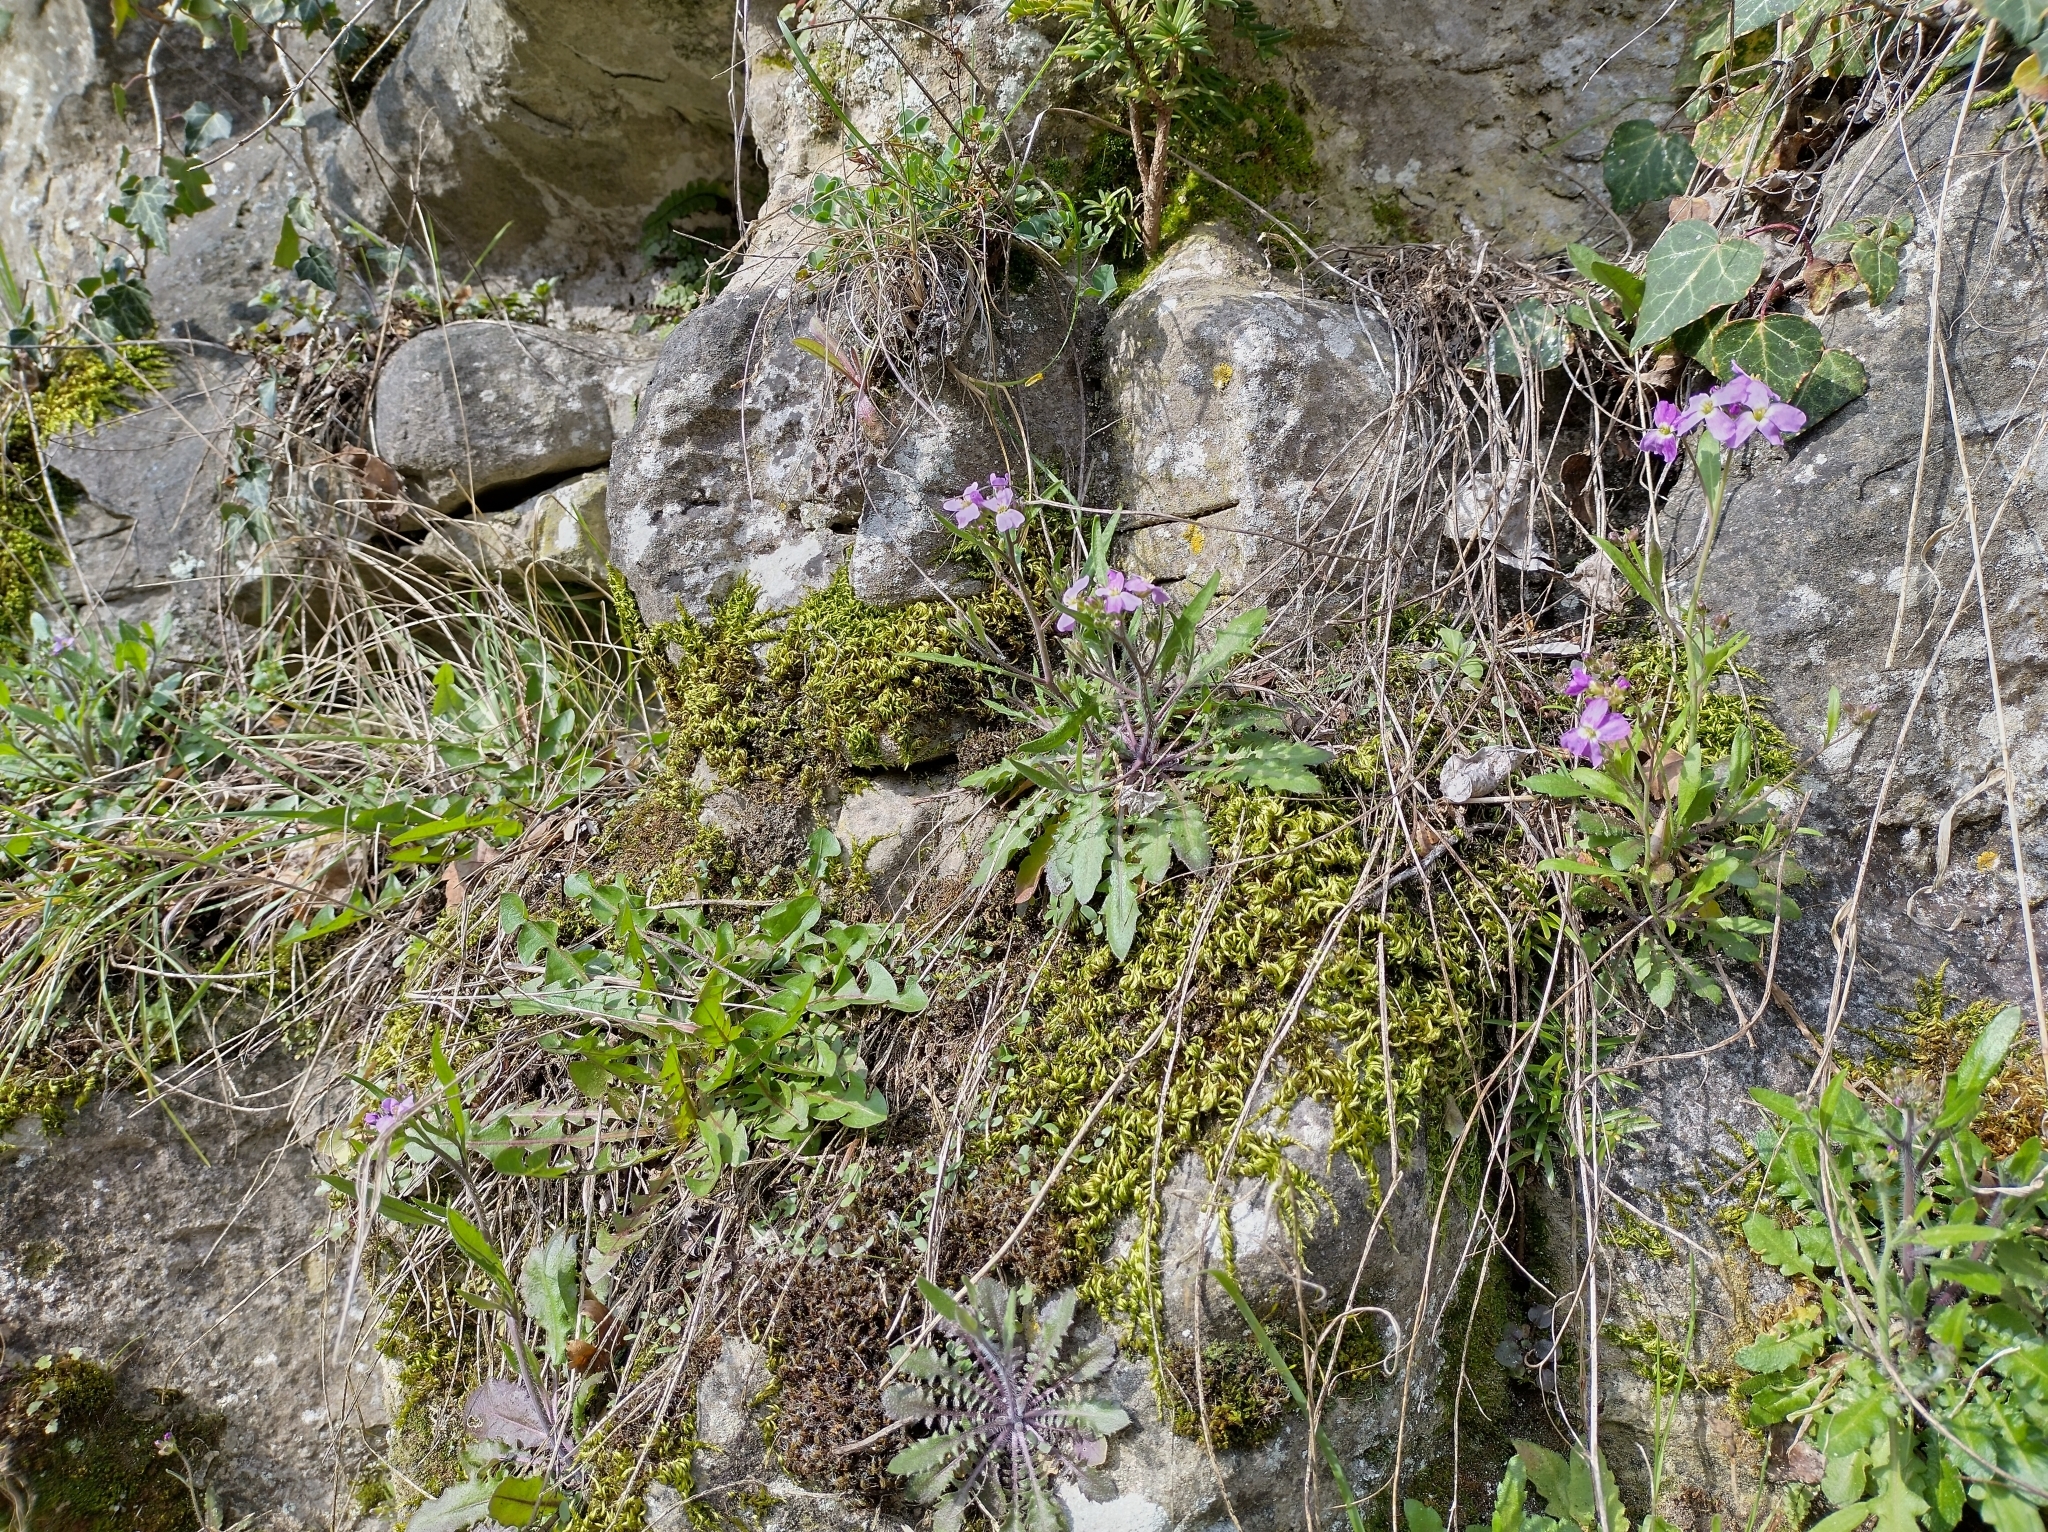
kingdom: Plantae
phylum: Tracheophyta
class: Magnoliopsida
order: Brassicales
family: Brassicaceae
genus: Arabidopsis
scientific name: Arabidopsis arenosa
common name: Sand rock-cress
